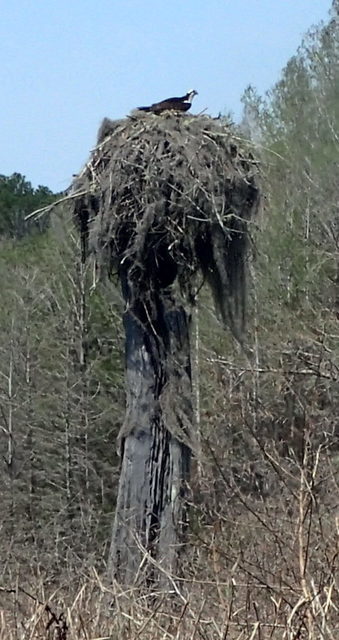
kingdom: Animalia
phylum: Chordata
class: Aves
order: Accipitriformes
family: Pandionidae
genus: Pandion
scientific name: Pandion haliaetus
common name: Osprey
